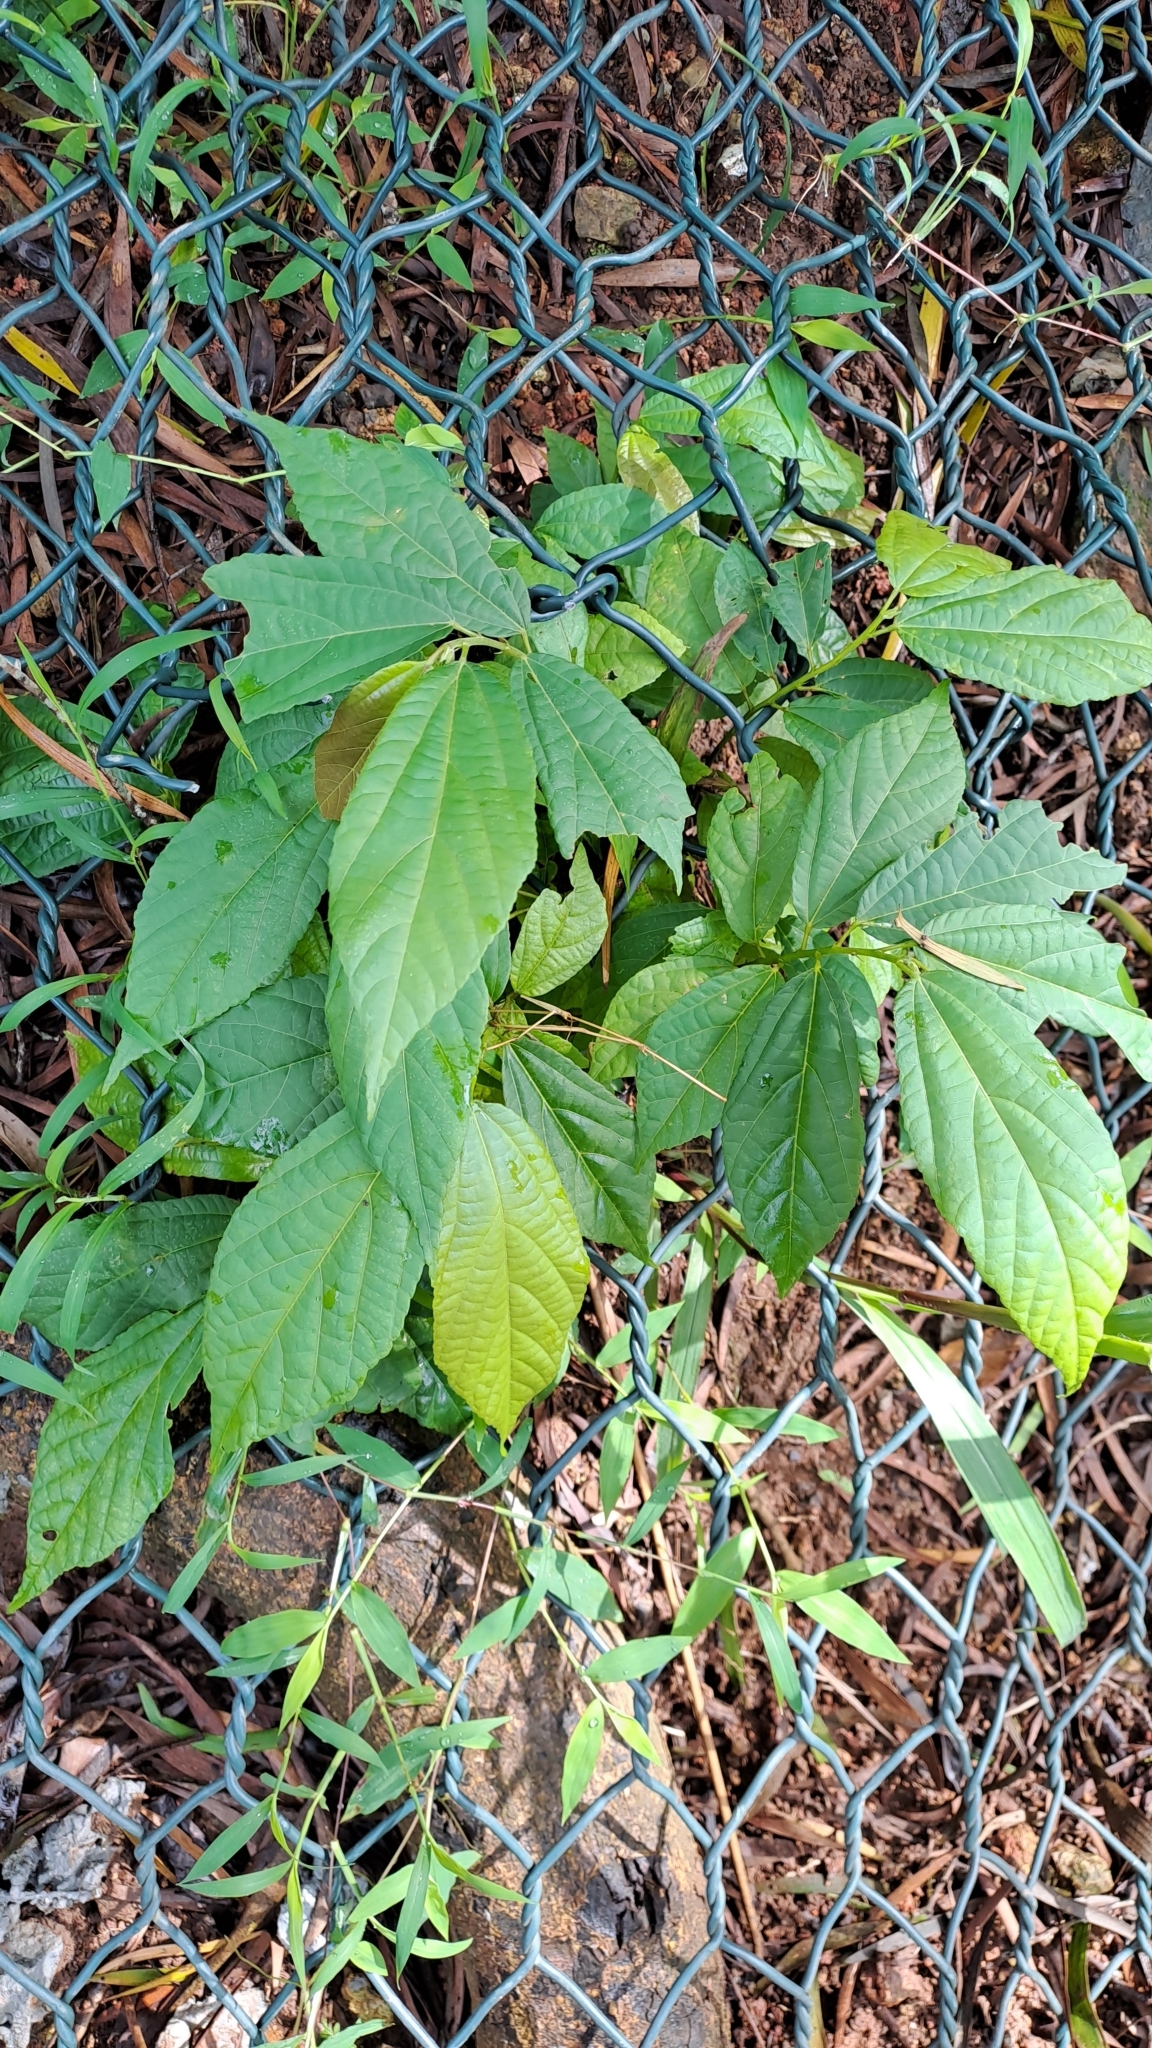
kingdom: Plantae
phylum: Tracheophyta
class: Magnoliopsida
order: Malvales
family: Malvaceae
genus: Microcos
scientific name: Microcos paniculata
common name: Microcos
